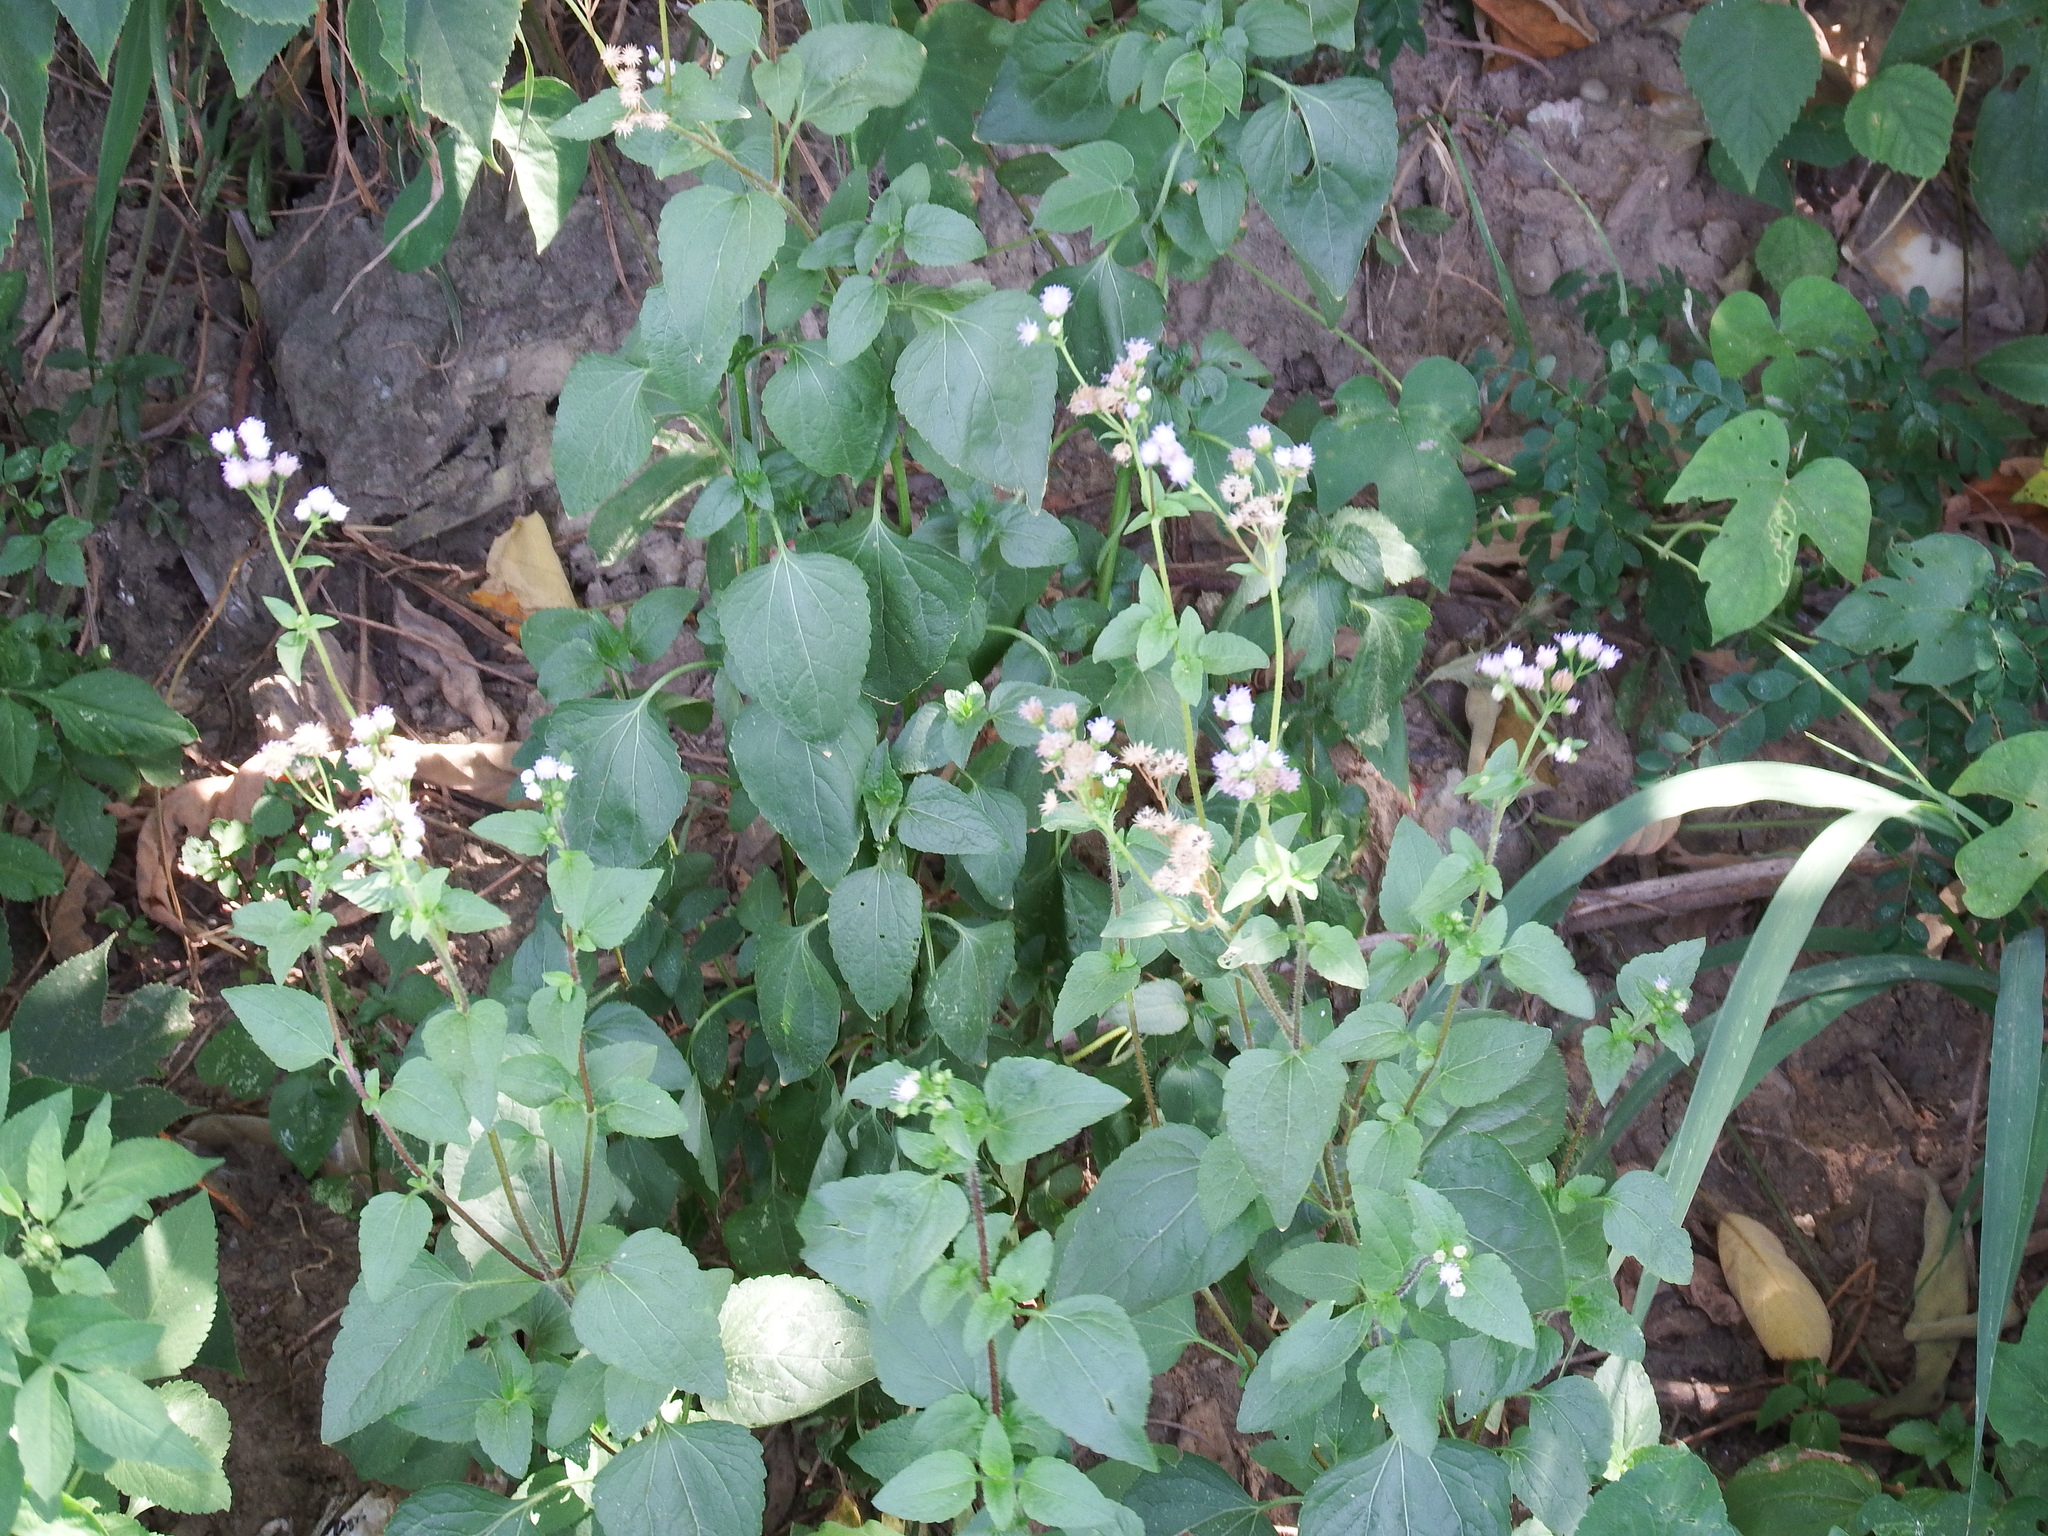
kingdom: Plantae
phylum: Tracheophyta
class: Magnoliopsida
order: Asterales
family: Asteraceae
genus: Ageratum
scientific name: Ageratum houstonianum
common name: Bluemink
